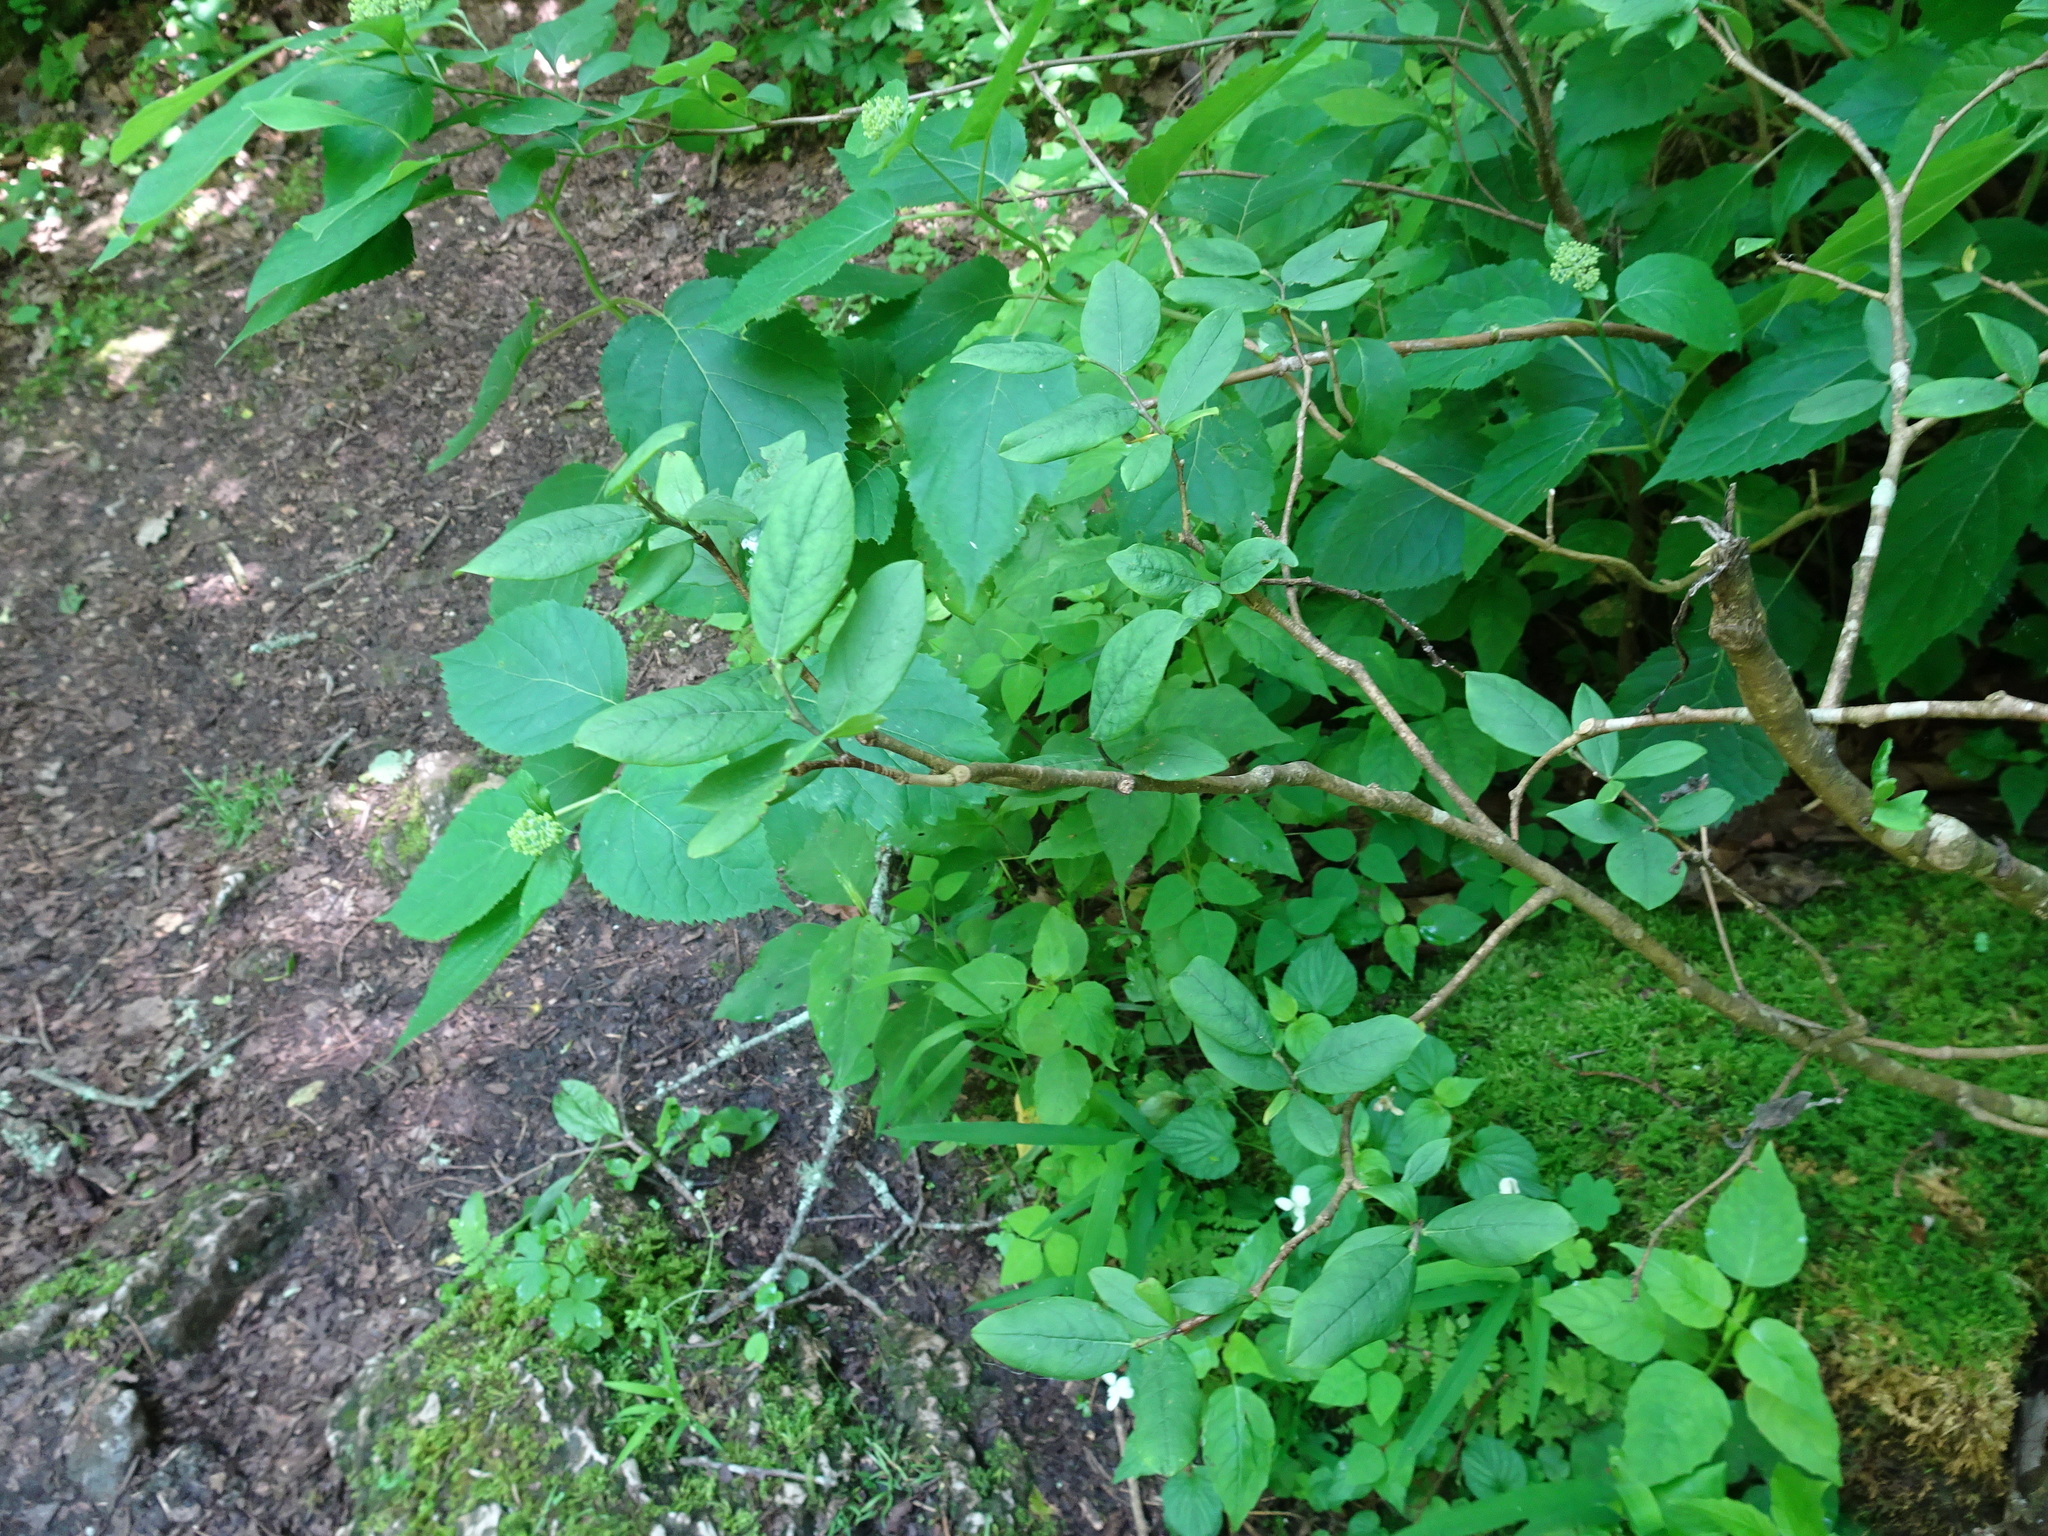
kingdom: Plantae
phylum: Tracheophyta
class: Magnoliopsida
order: Malvales
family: Thymelaeaceae
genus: Dirca
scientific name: Dirca palustris
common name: Leatherwood
